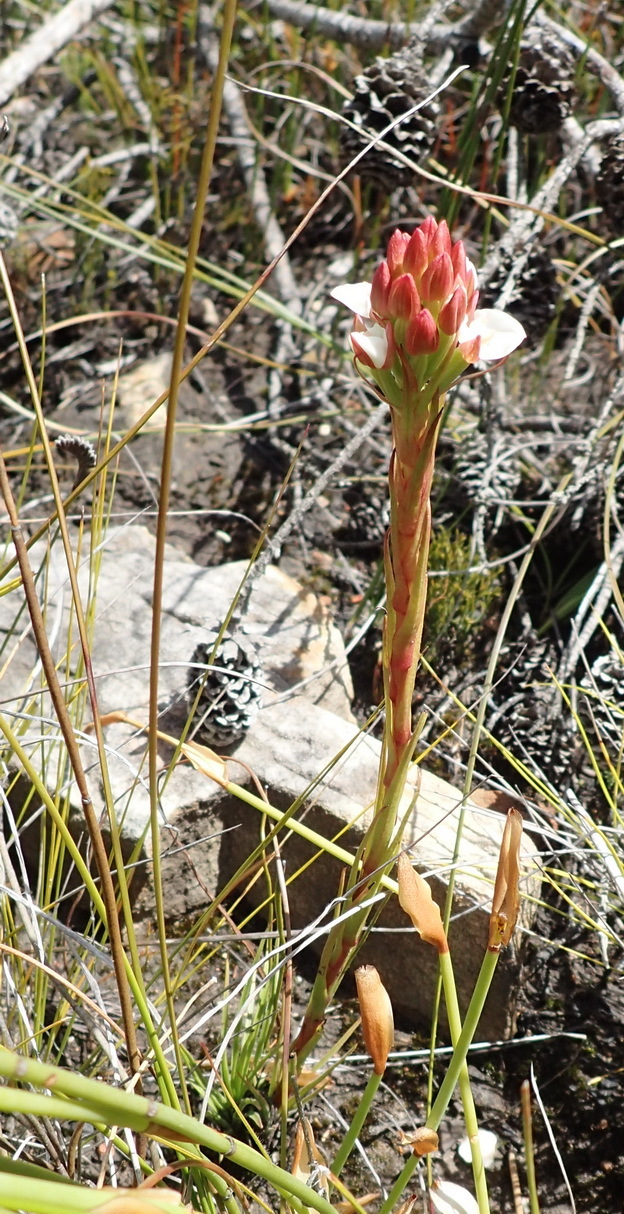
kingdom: Plantae
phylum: Tracheophyta
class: Liliopsida
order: Asparagales
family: Orchidaceae
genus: Ceratandra
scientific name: Ceratandra globosa
